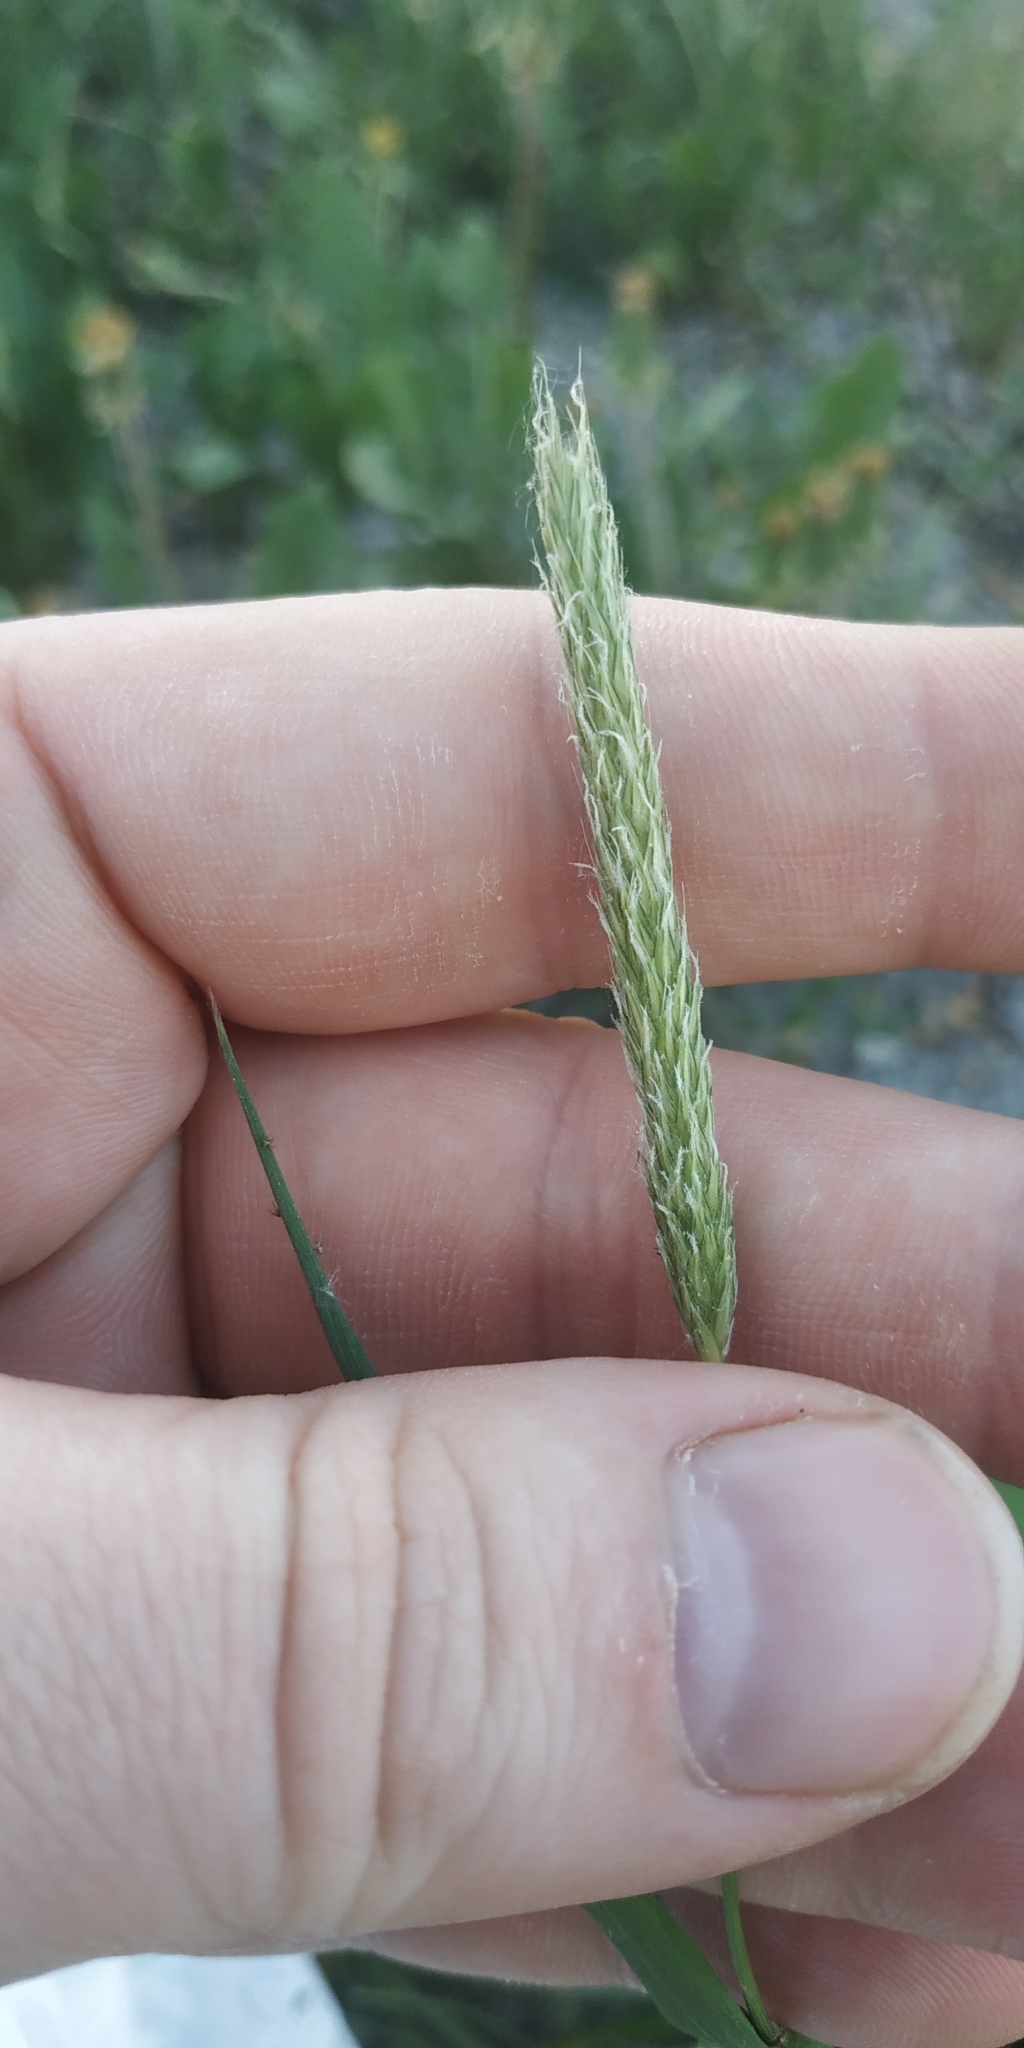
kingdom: Plantae
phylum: Tracheophyta
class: Liliopsida
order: Poales
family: Poaceae
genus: Alopecurus
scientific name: Alopecurus pratensis
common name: Meadow foxtail
